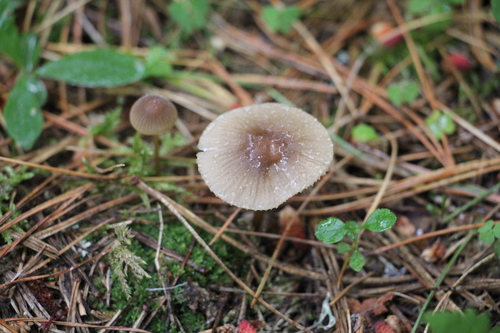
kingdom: Fungi
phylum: Basidiomycota
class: Agaricomycetes
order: Agaricales
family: Mycenaceae
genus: Mycena
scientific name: Mycena viridimarginata
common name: Olive edge bonnet
